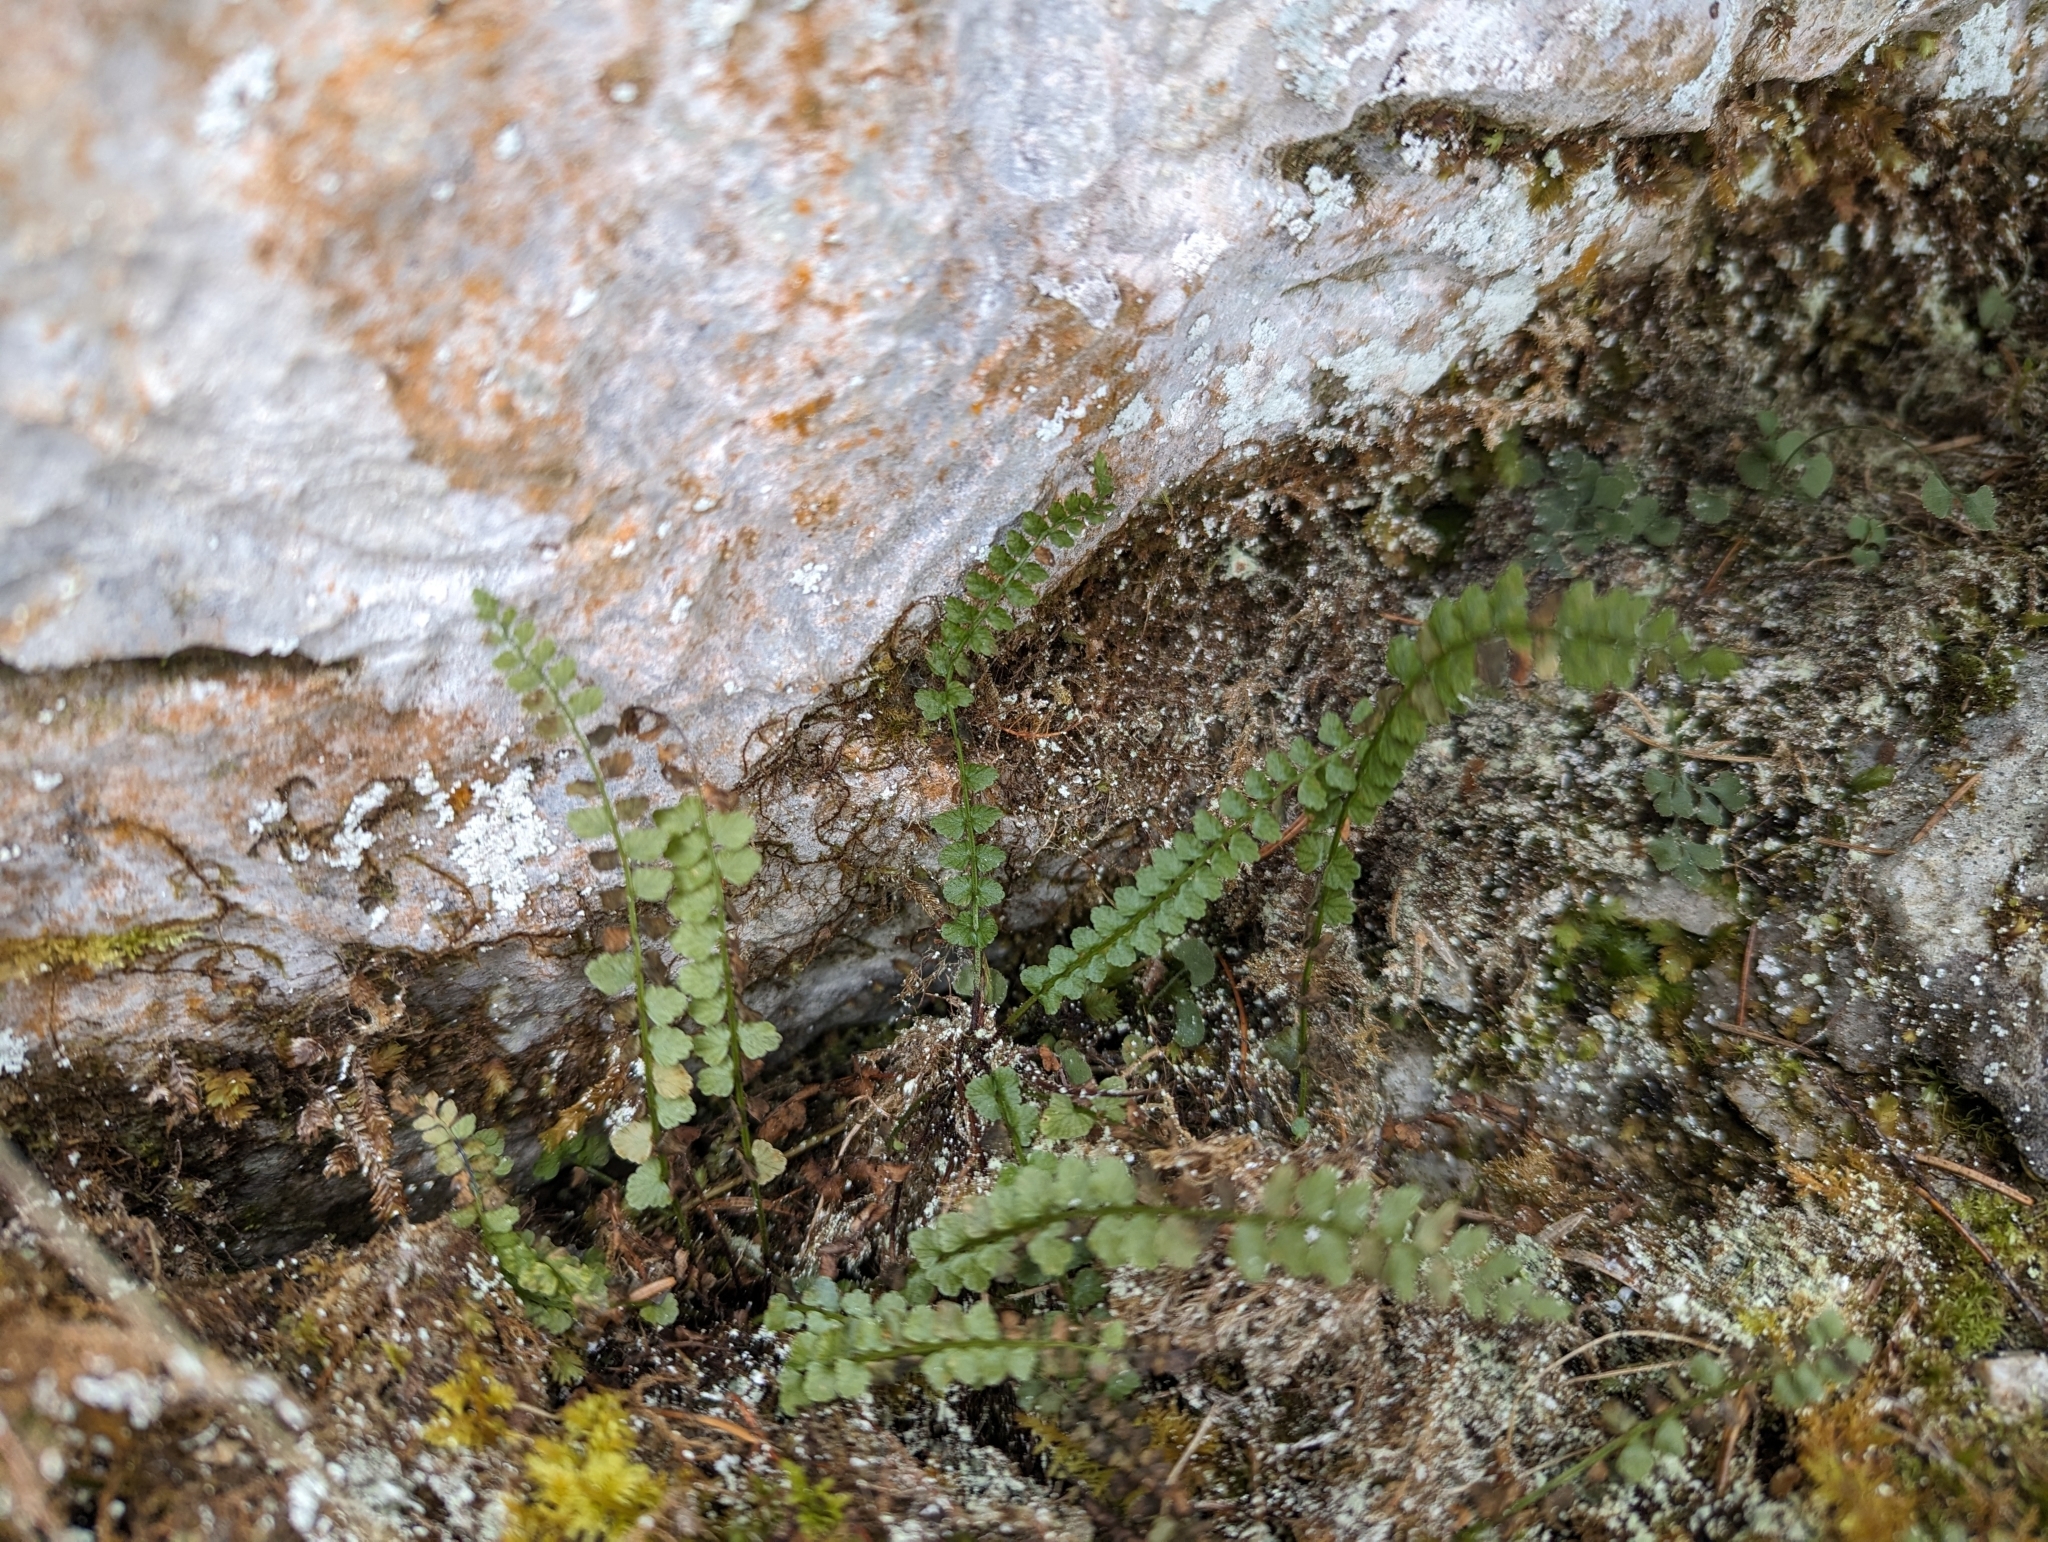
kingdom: Plantae
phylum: Tracheophyta
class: Polypodiopsida
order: Polypodiales
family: Aspleniaceae
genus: Asplenium
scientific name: Asplenium viride
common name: Green spleenwort
